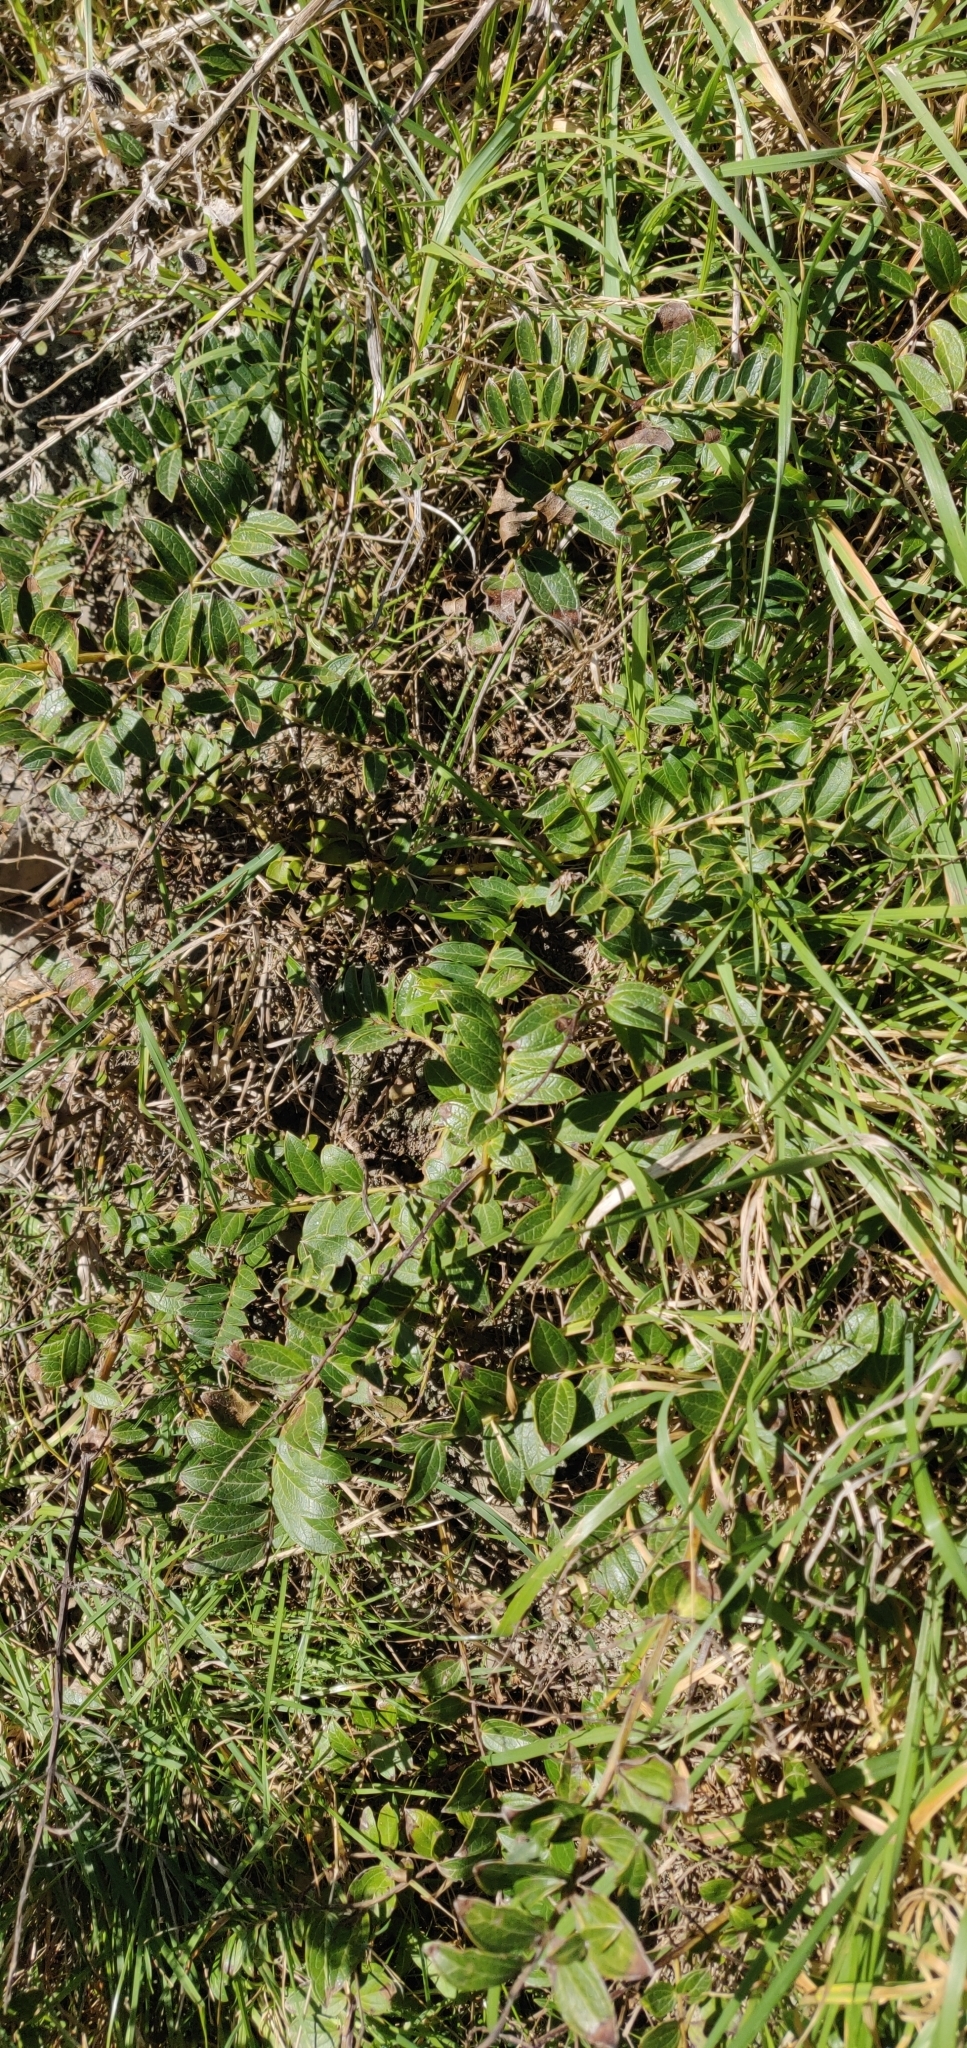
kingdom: Plantae
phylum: Tracheophyta
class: Magnoliopsida
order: Cucurbitales
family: Coriariaceae
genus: Coriaria
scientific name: Coriaria sarmentosa
